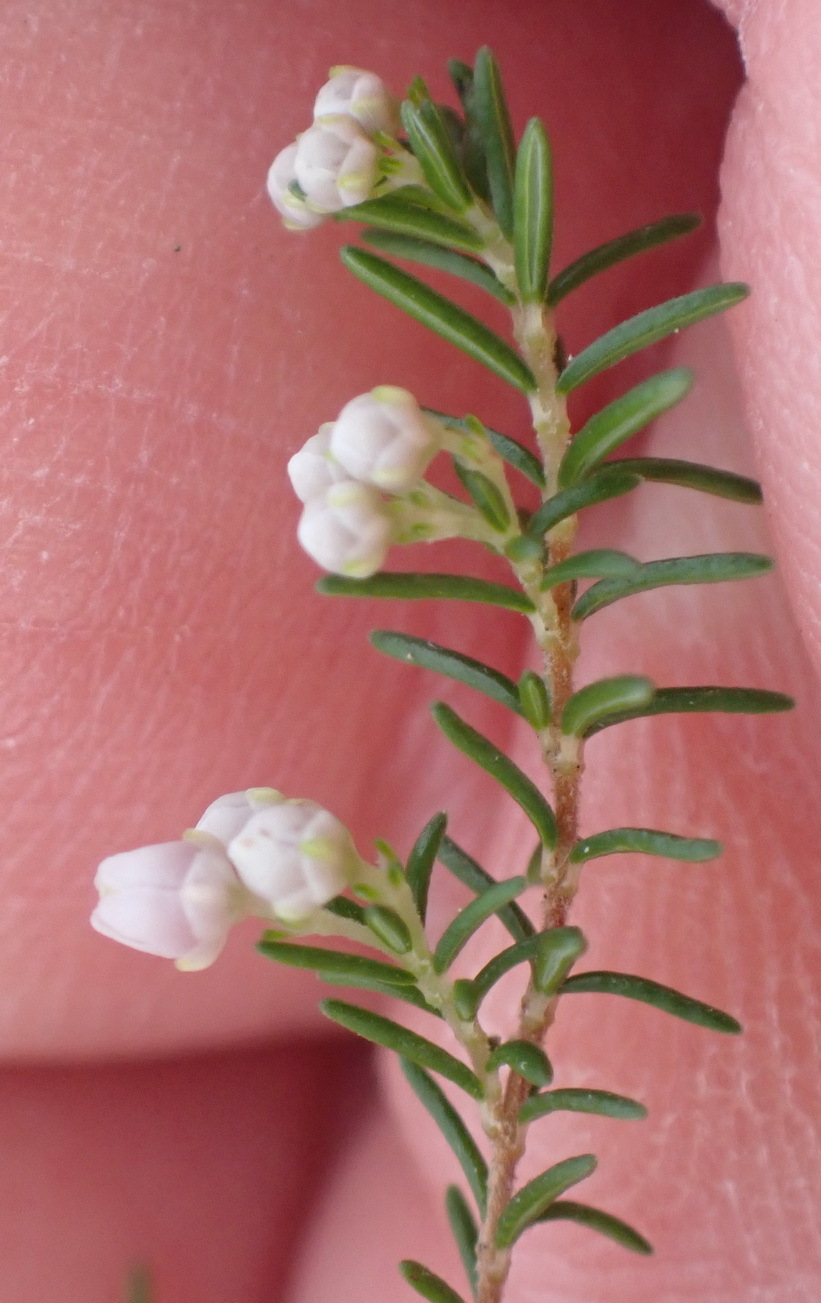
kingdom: Plantae
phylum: Tracheophyta
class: Magnoliopsida
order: Ericales
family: Ericaceae
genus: Erica
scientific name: Erica sparsa
